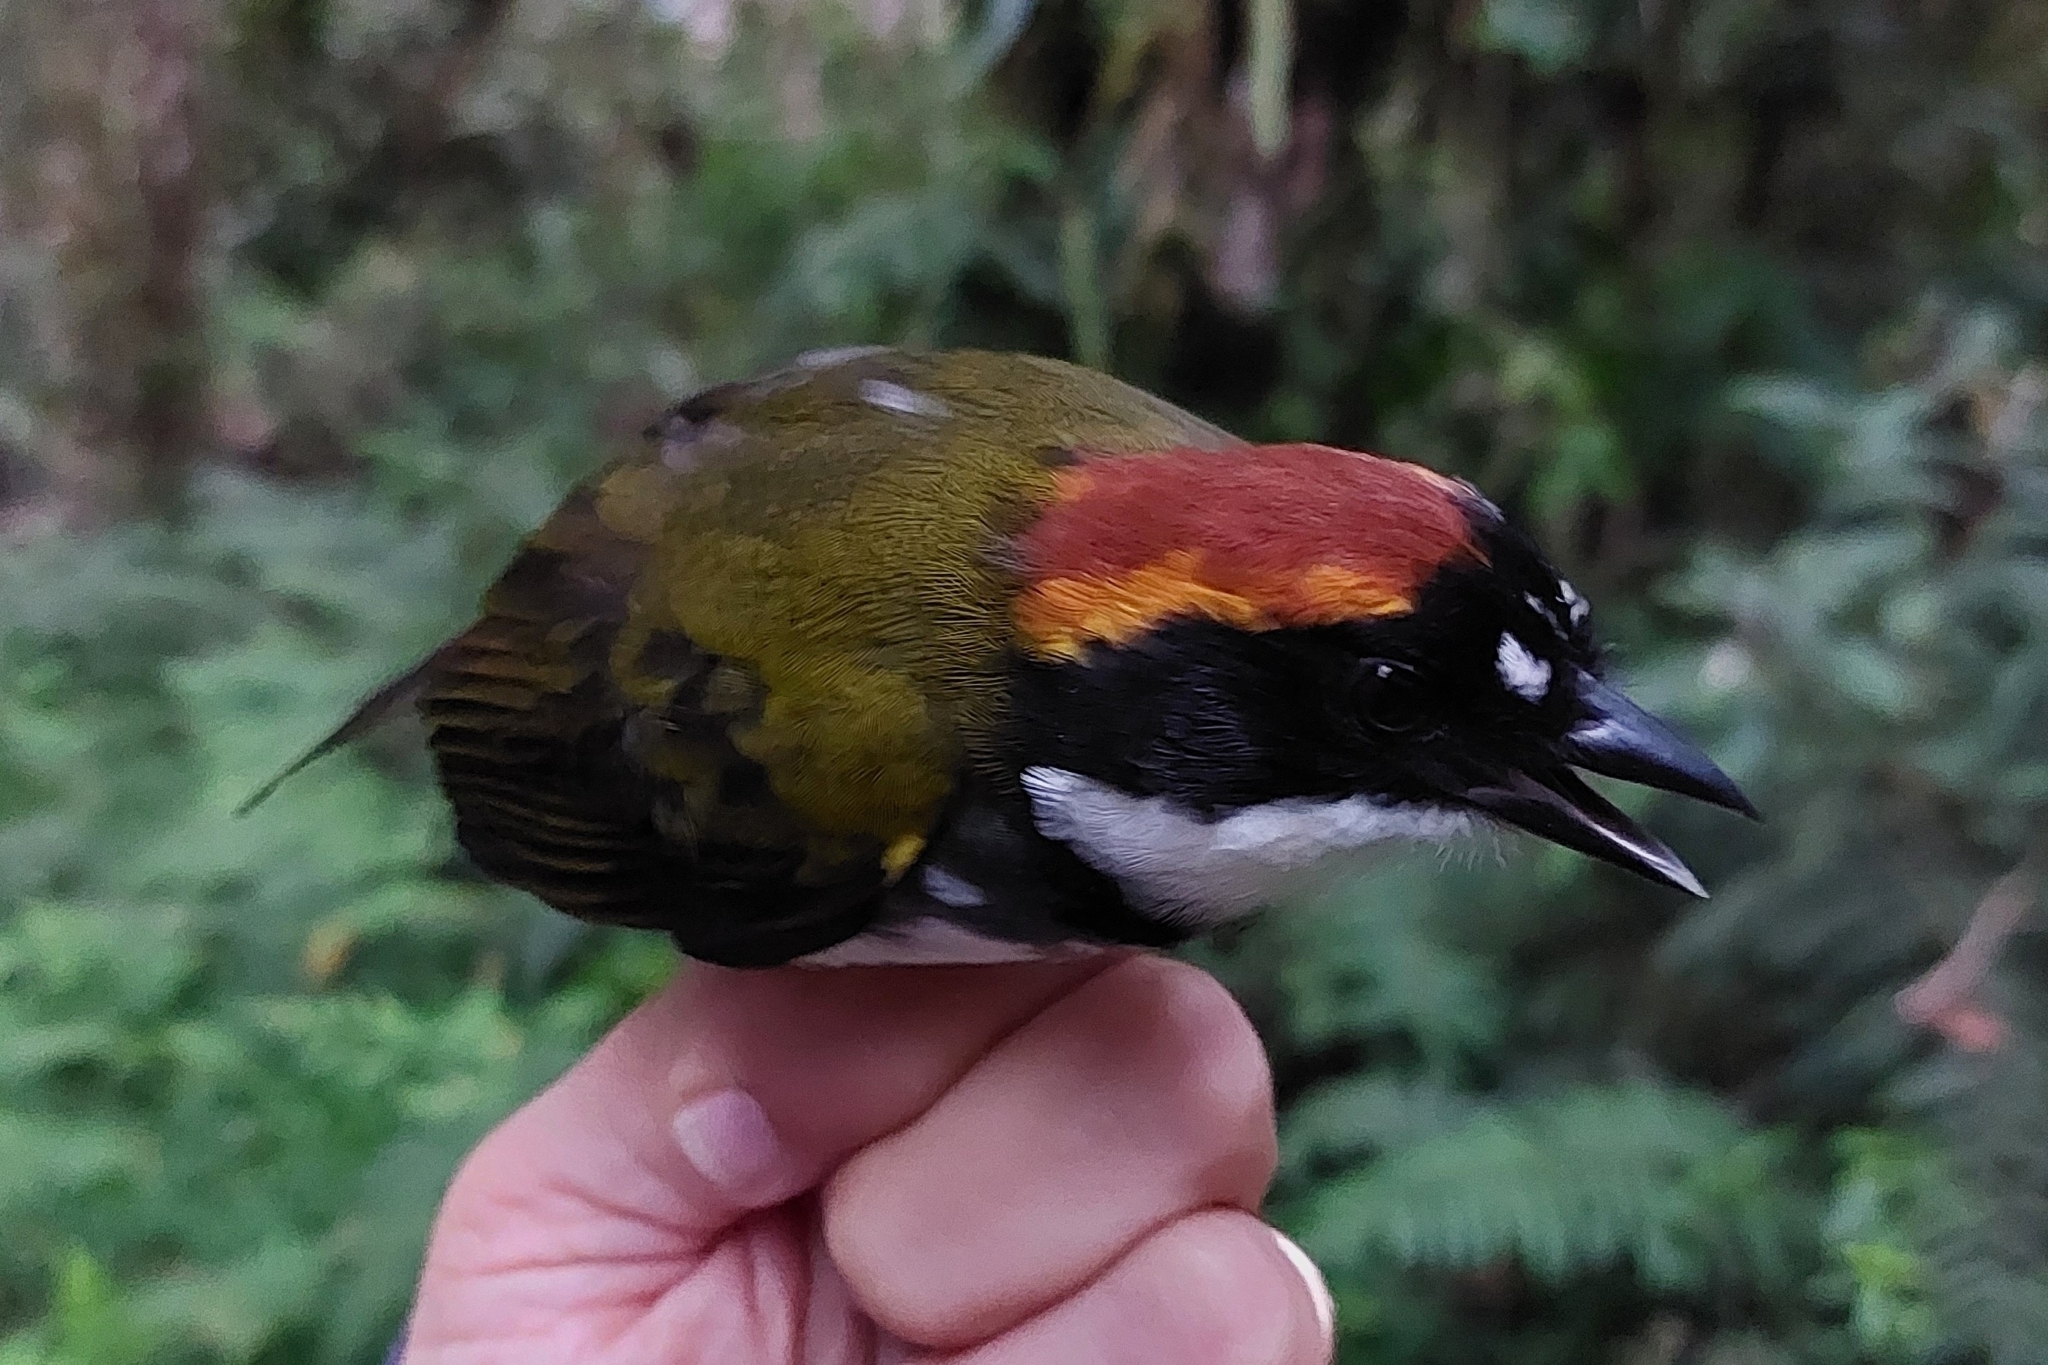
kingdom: Animalia
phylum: Chordata
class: Aves
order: Passeriformes
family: Passerellidae
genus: Arremon
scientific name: Arremon brunneinucha
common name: Chestnut-capped brushfinch
